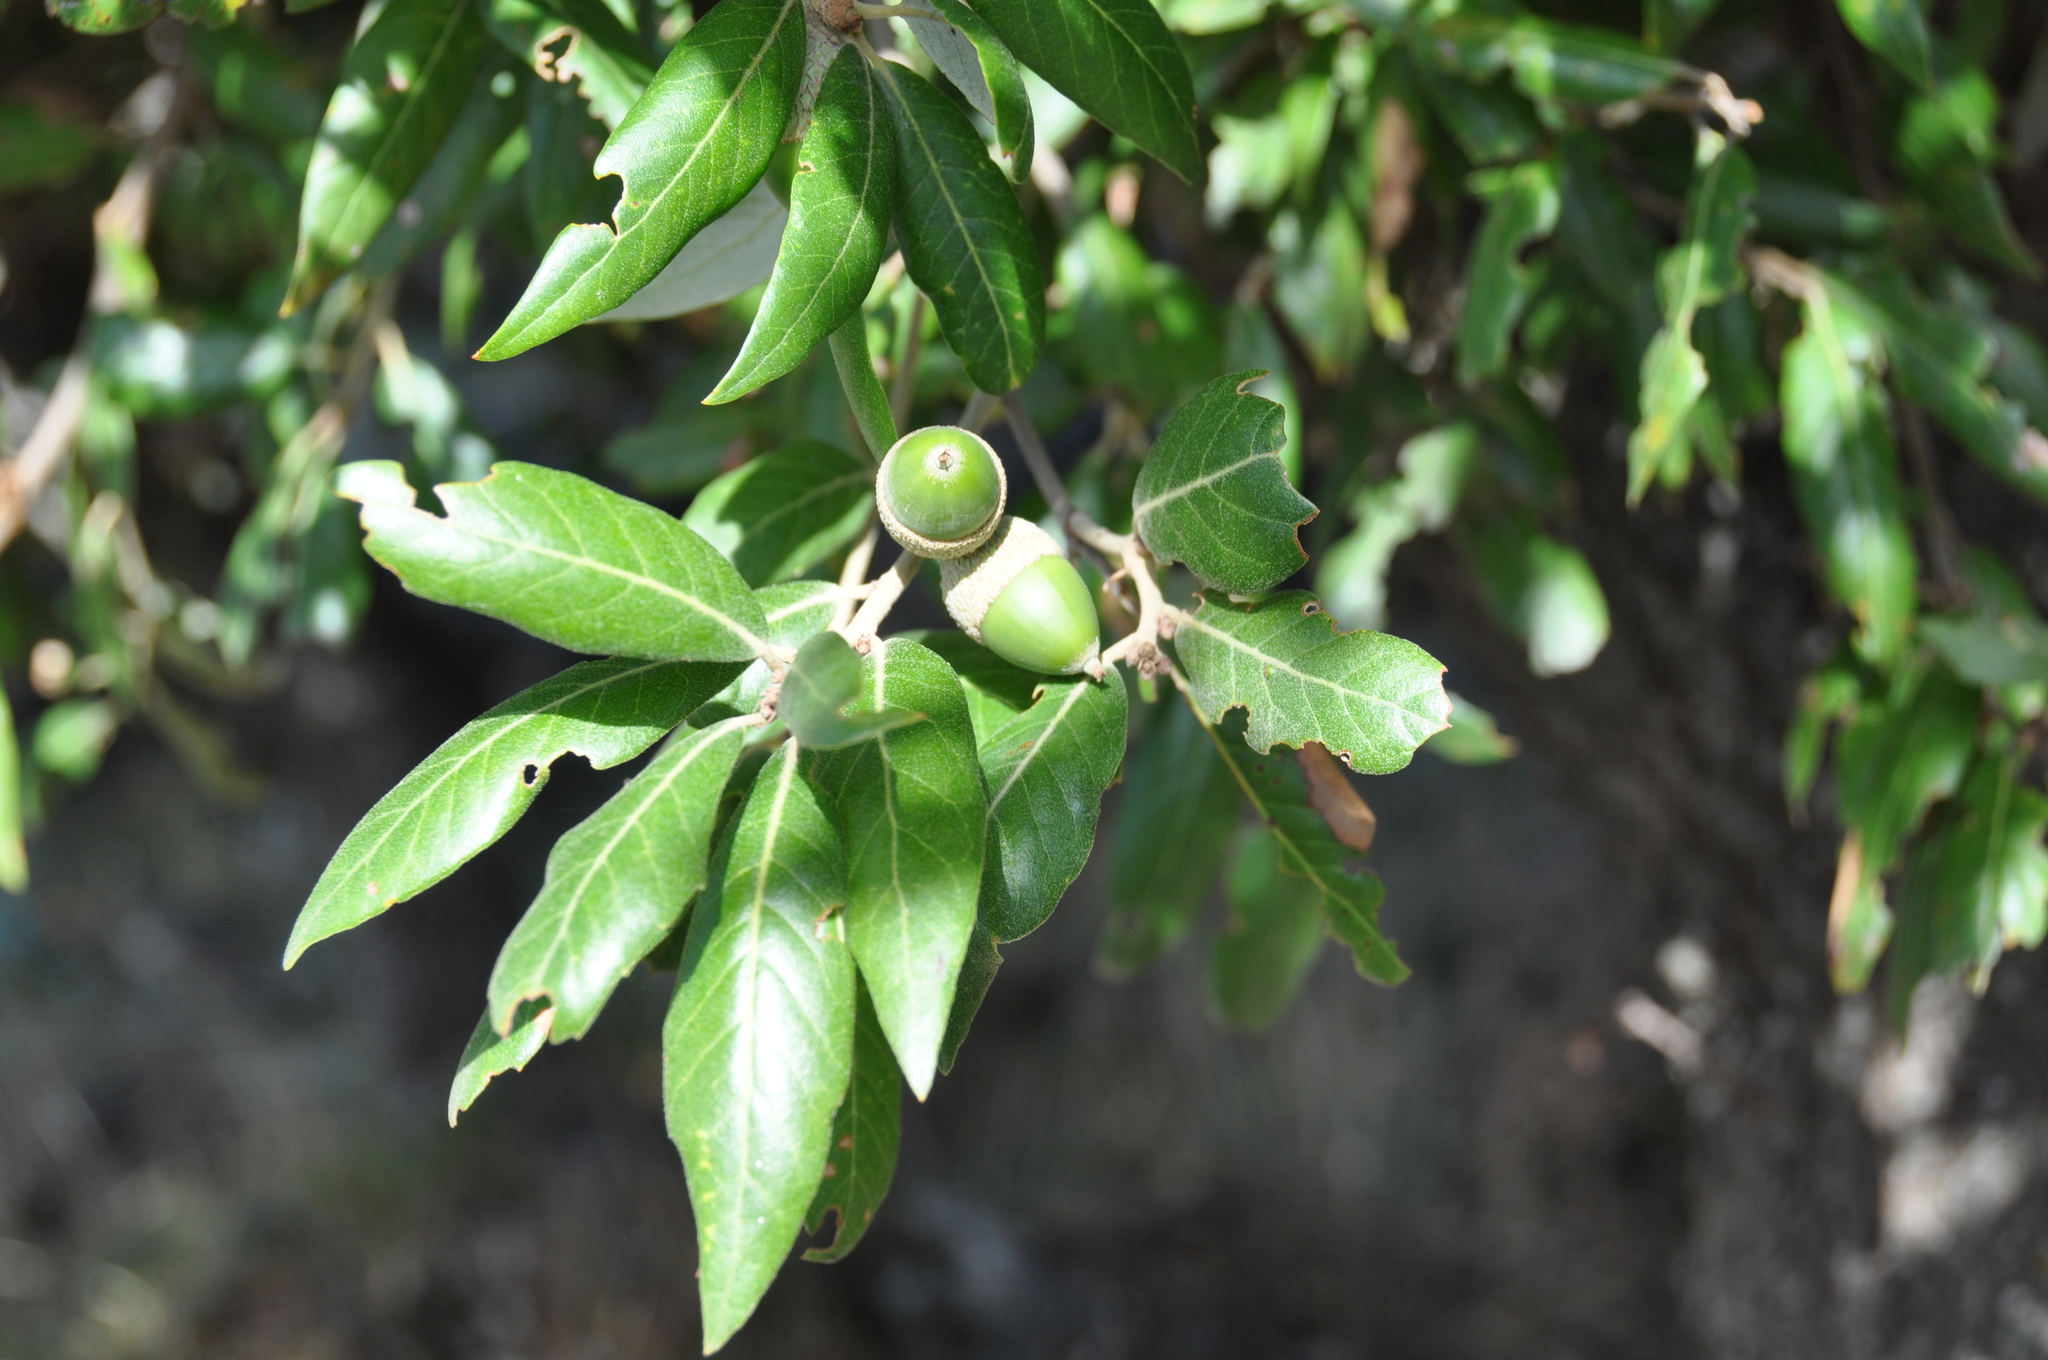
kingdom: Plantae
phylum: Tracheophyta
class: Magnoliopsida
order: Fagales
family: Fagaceae
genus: Quercus
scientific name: Quercus ilex
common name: Evergreen oak
